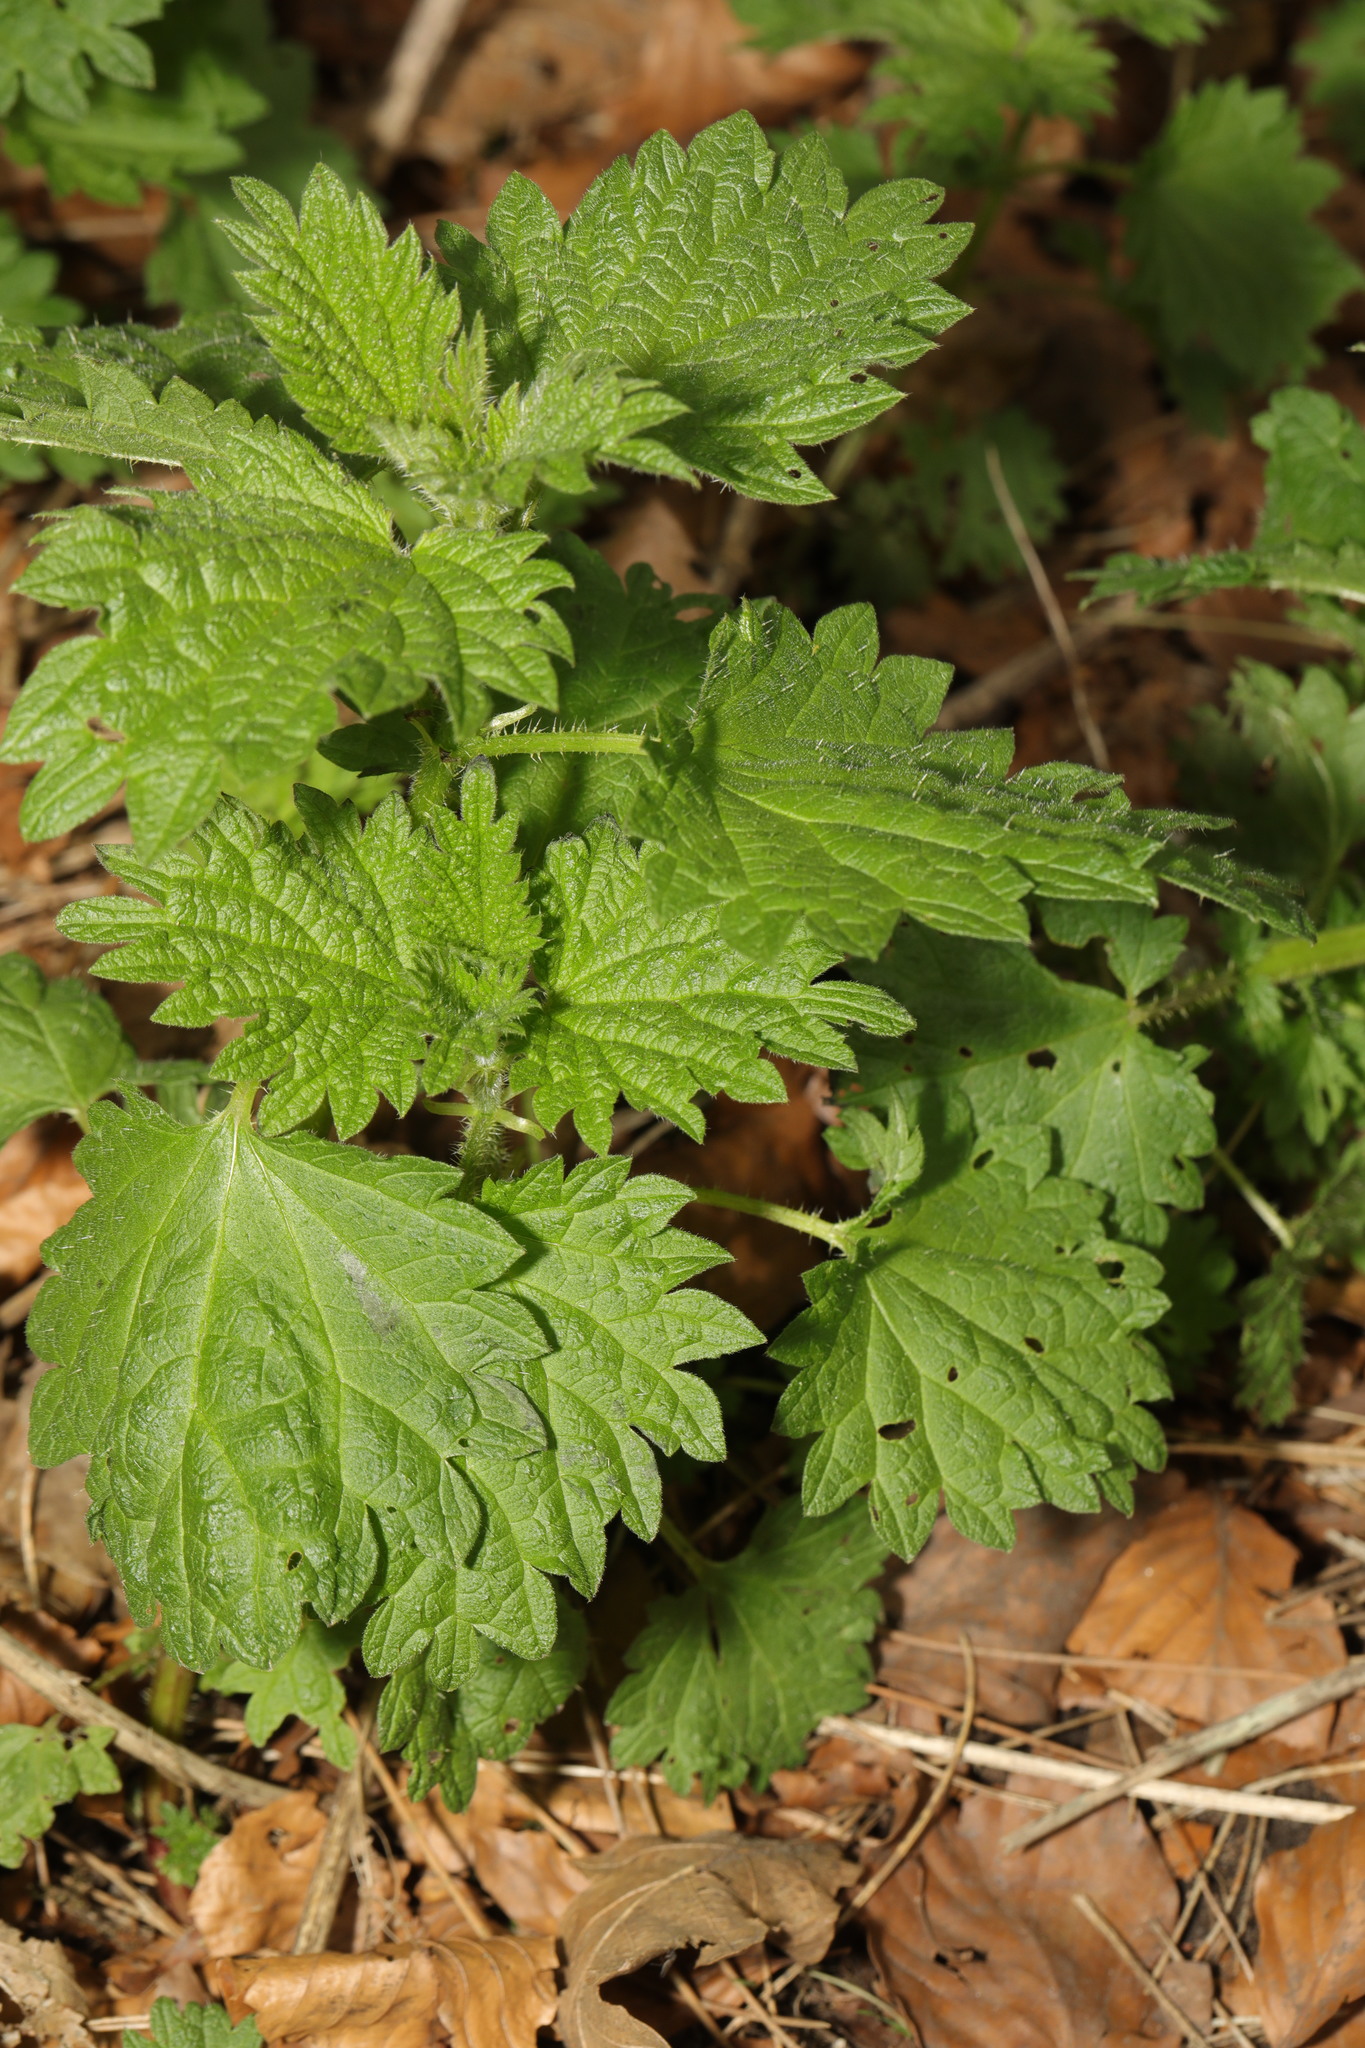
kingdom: Plantae
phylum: Tracheophyta
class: Magnoliopsida
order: Rosales
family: Urticaceae
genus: Urtica
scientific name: Urtica dioica
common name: Common nettle
